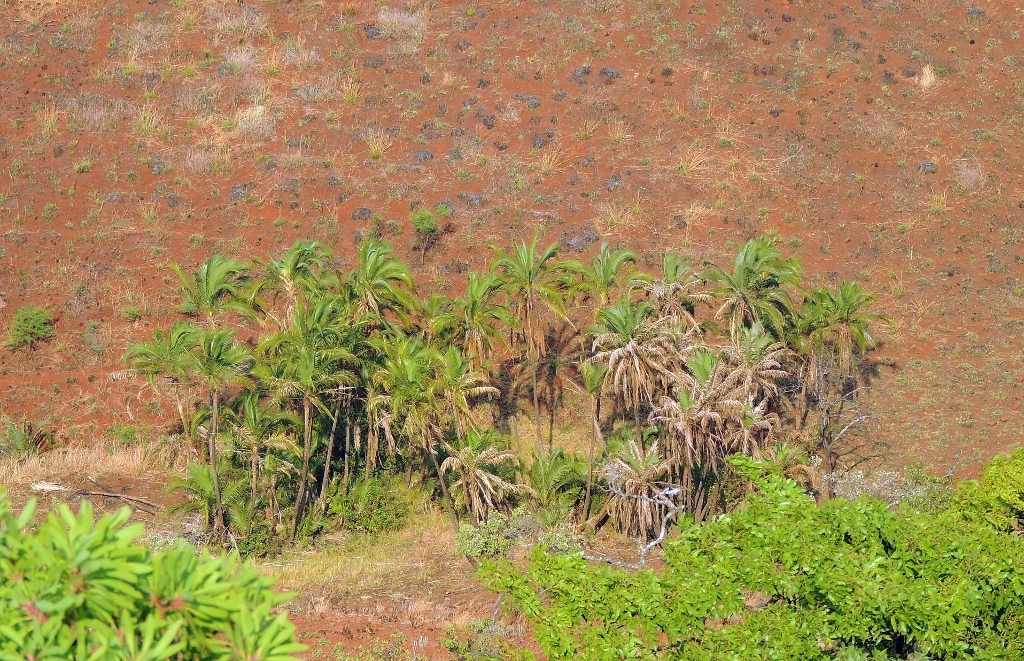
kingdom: Plantae
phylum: Tracheophyta
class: Liliopsida
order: Arecales
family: Arecaceae
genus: Phoenix
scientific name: Phoenix reclinata
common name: Senegal date palm
